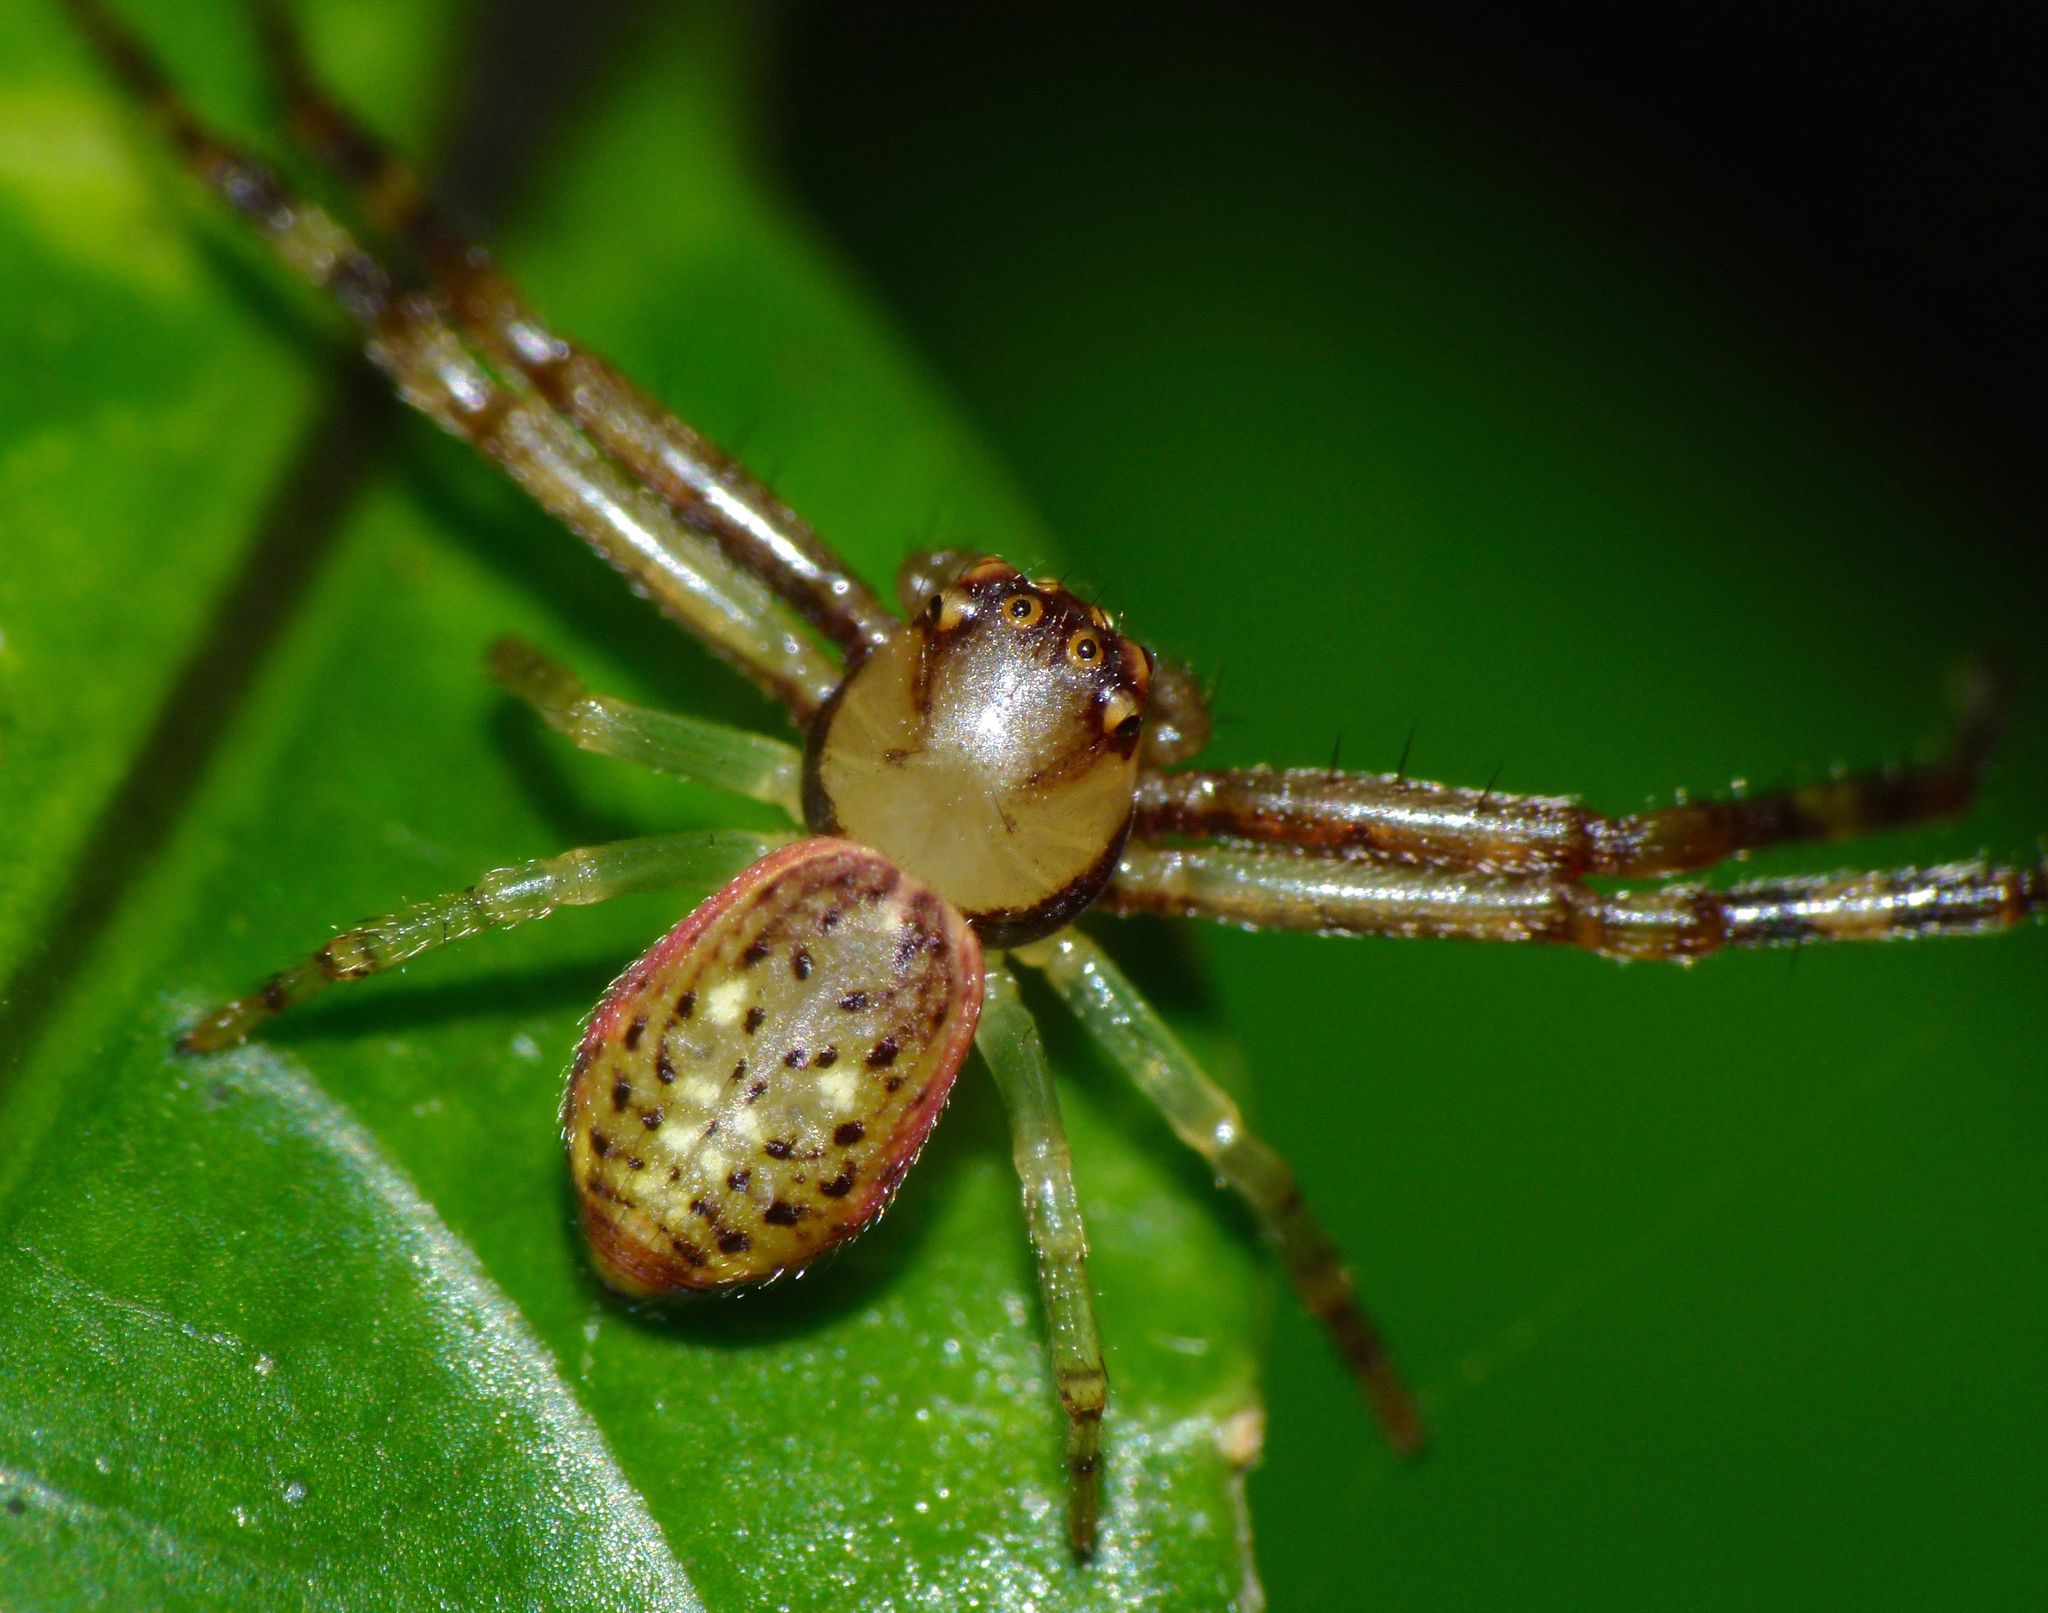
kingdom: Animalia
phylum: Arthropoda
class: Arachnida
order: Araneae
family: Thomisidae
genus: Diaea
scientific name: Diaea ambara
